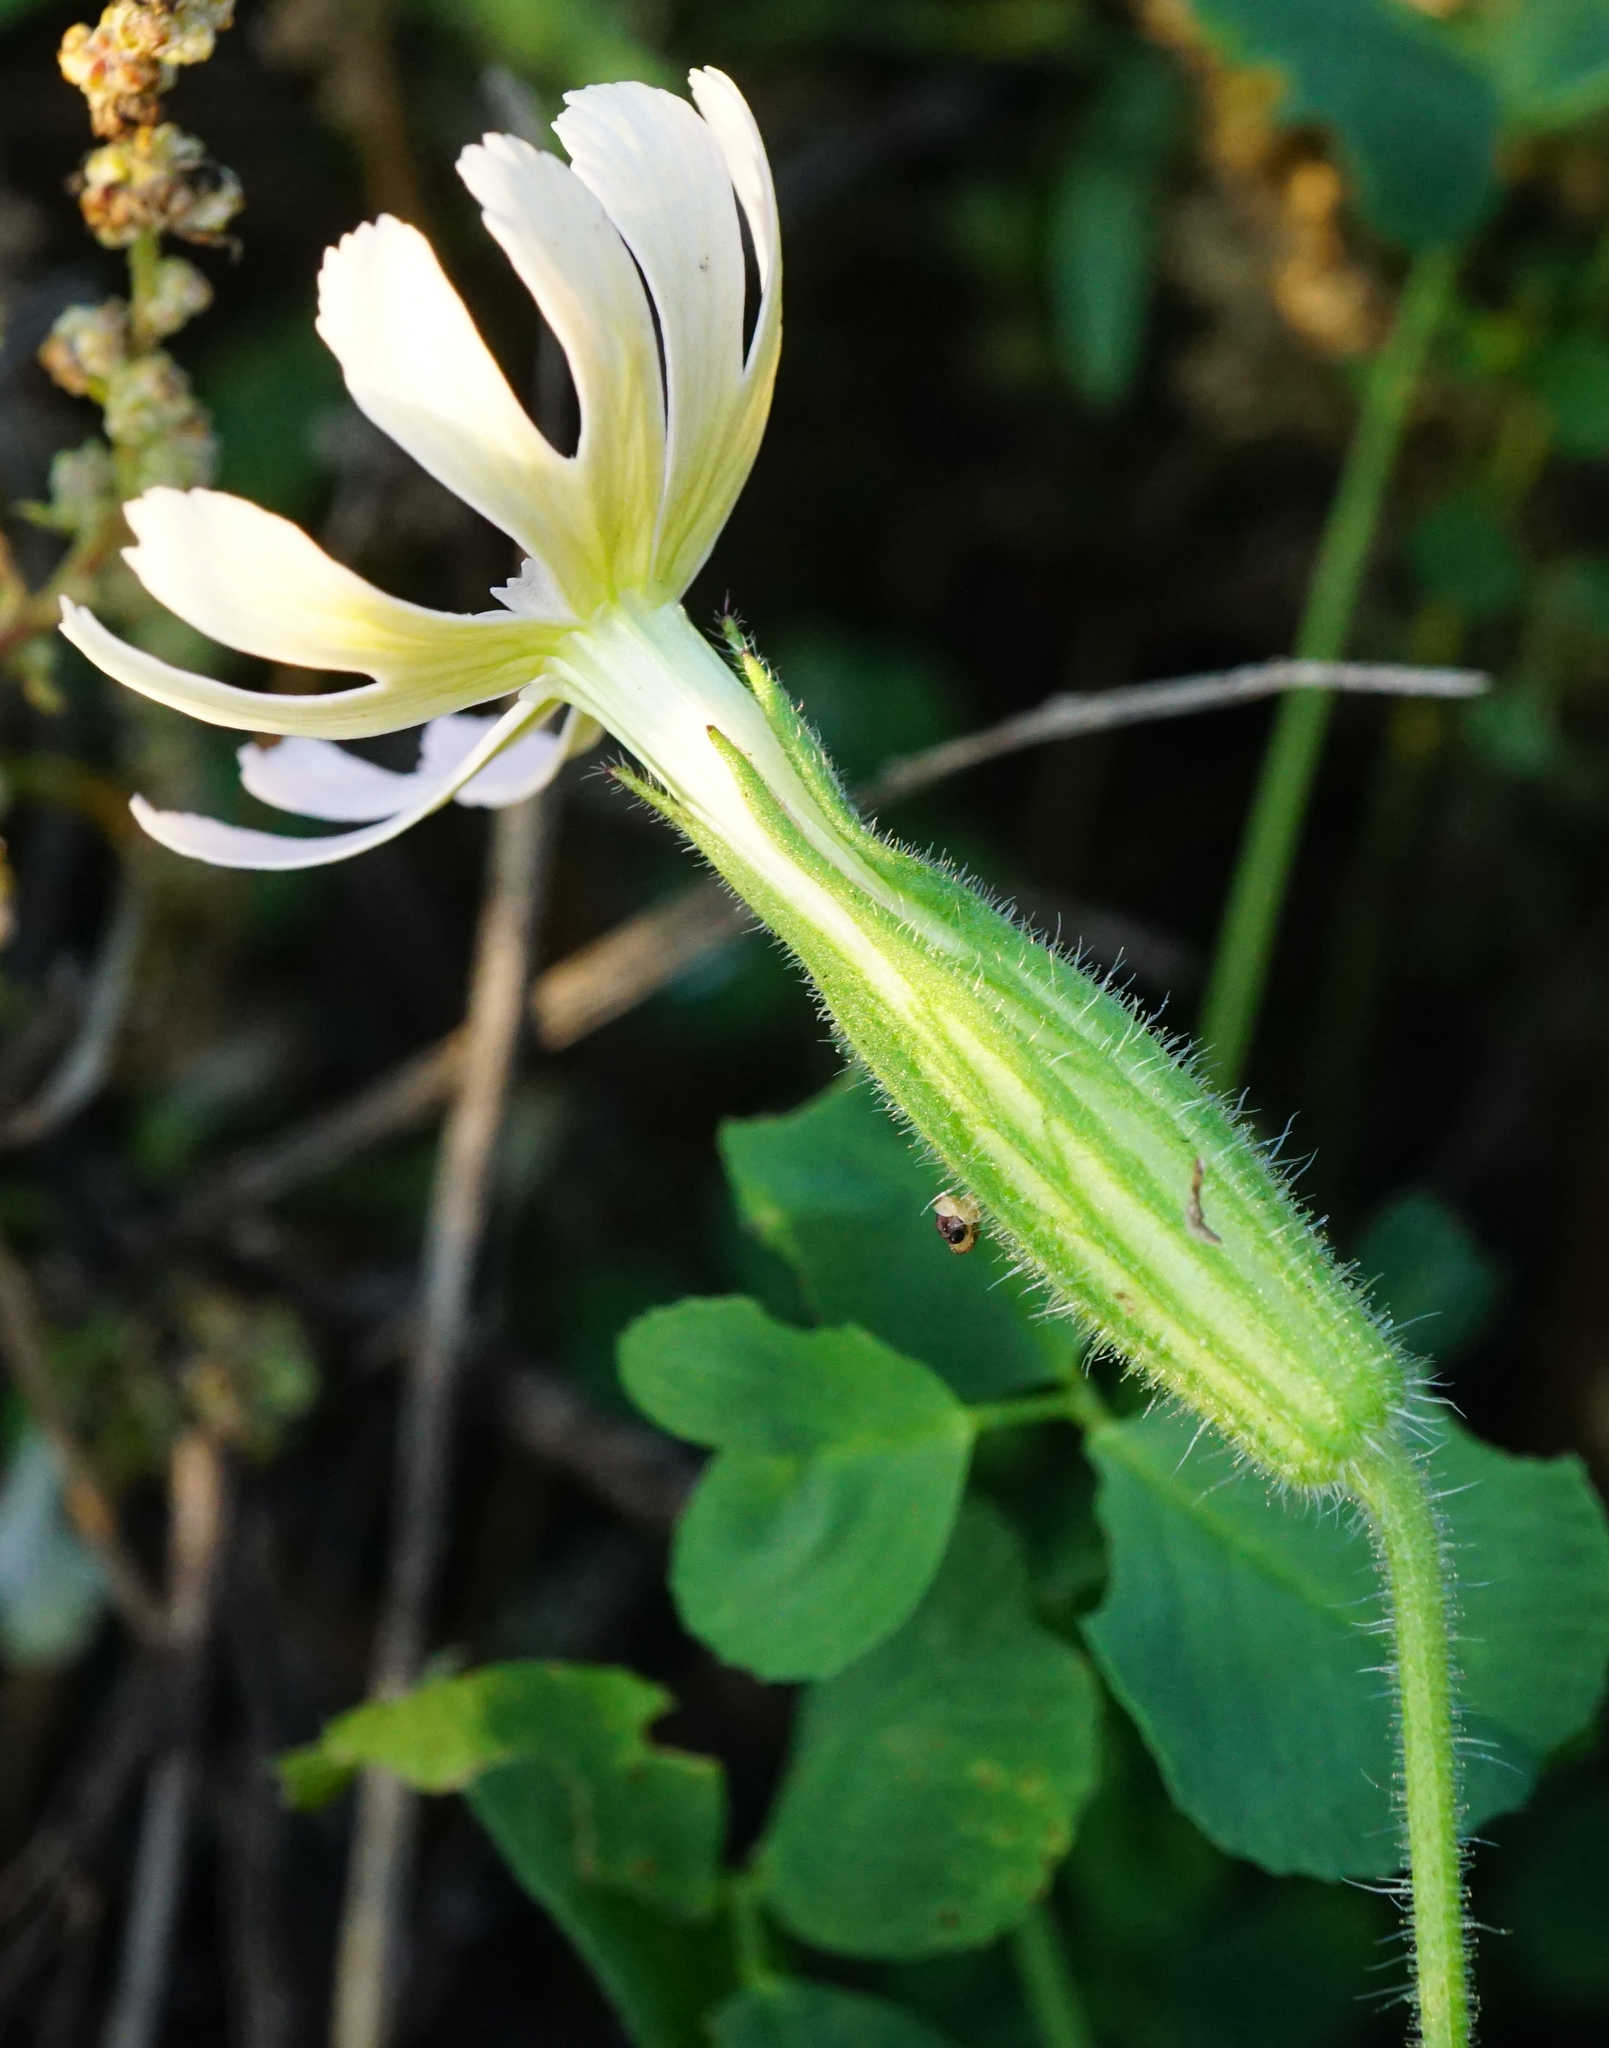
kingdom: Plantae
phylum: Tracheophyta
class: Magnoliopsida
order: Caryophyllales
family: Caryophyllaceae
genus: Silene
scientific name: Silene noctiflora
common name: Night-flowering catchfly
